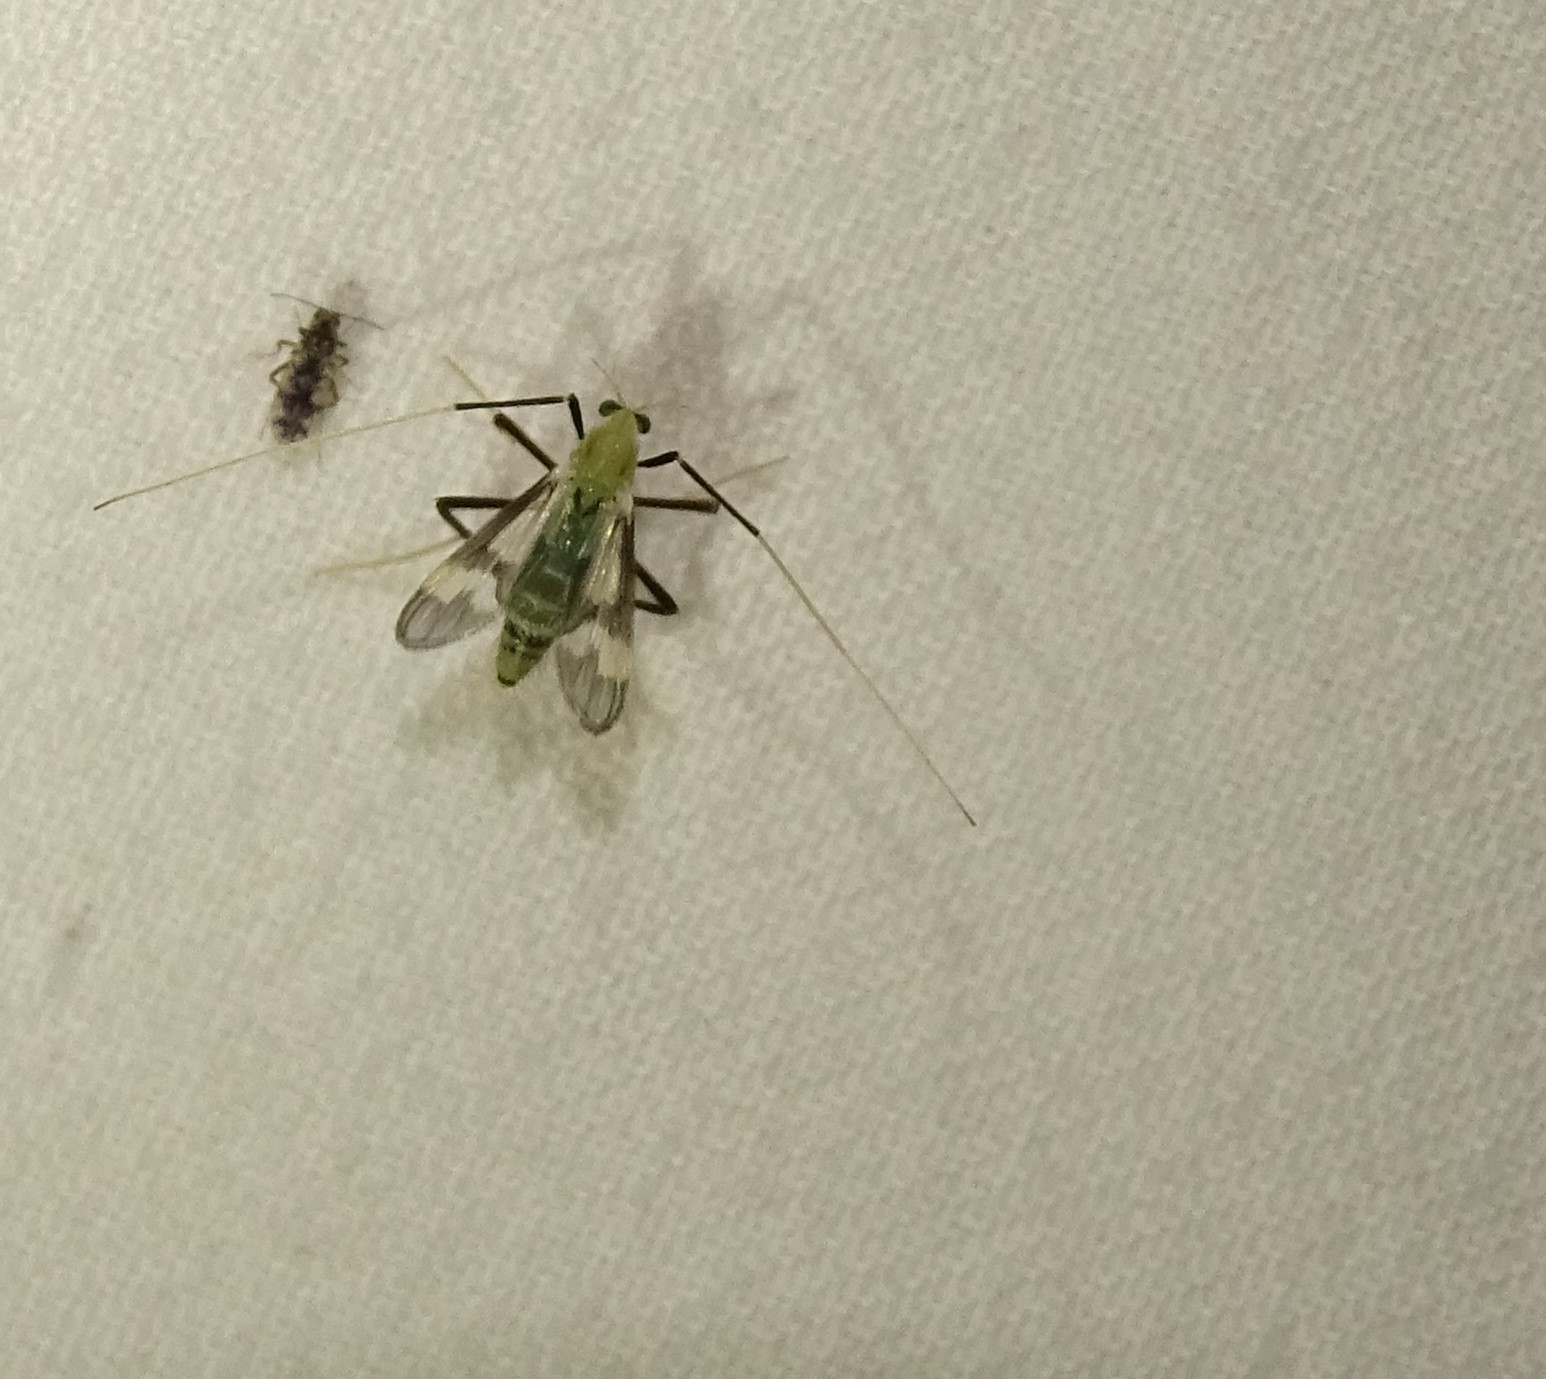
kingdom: Animalia
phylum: Arthropoda
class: Insecta
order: Diptera
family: Chironomidae
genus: Stenochironomus
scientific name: Stenochironomus hilaris
